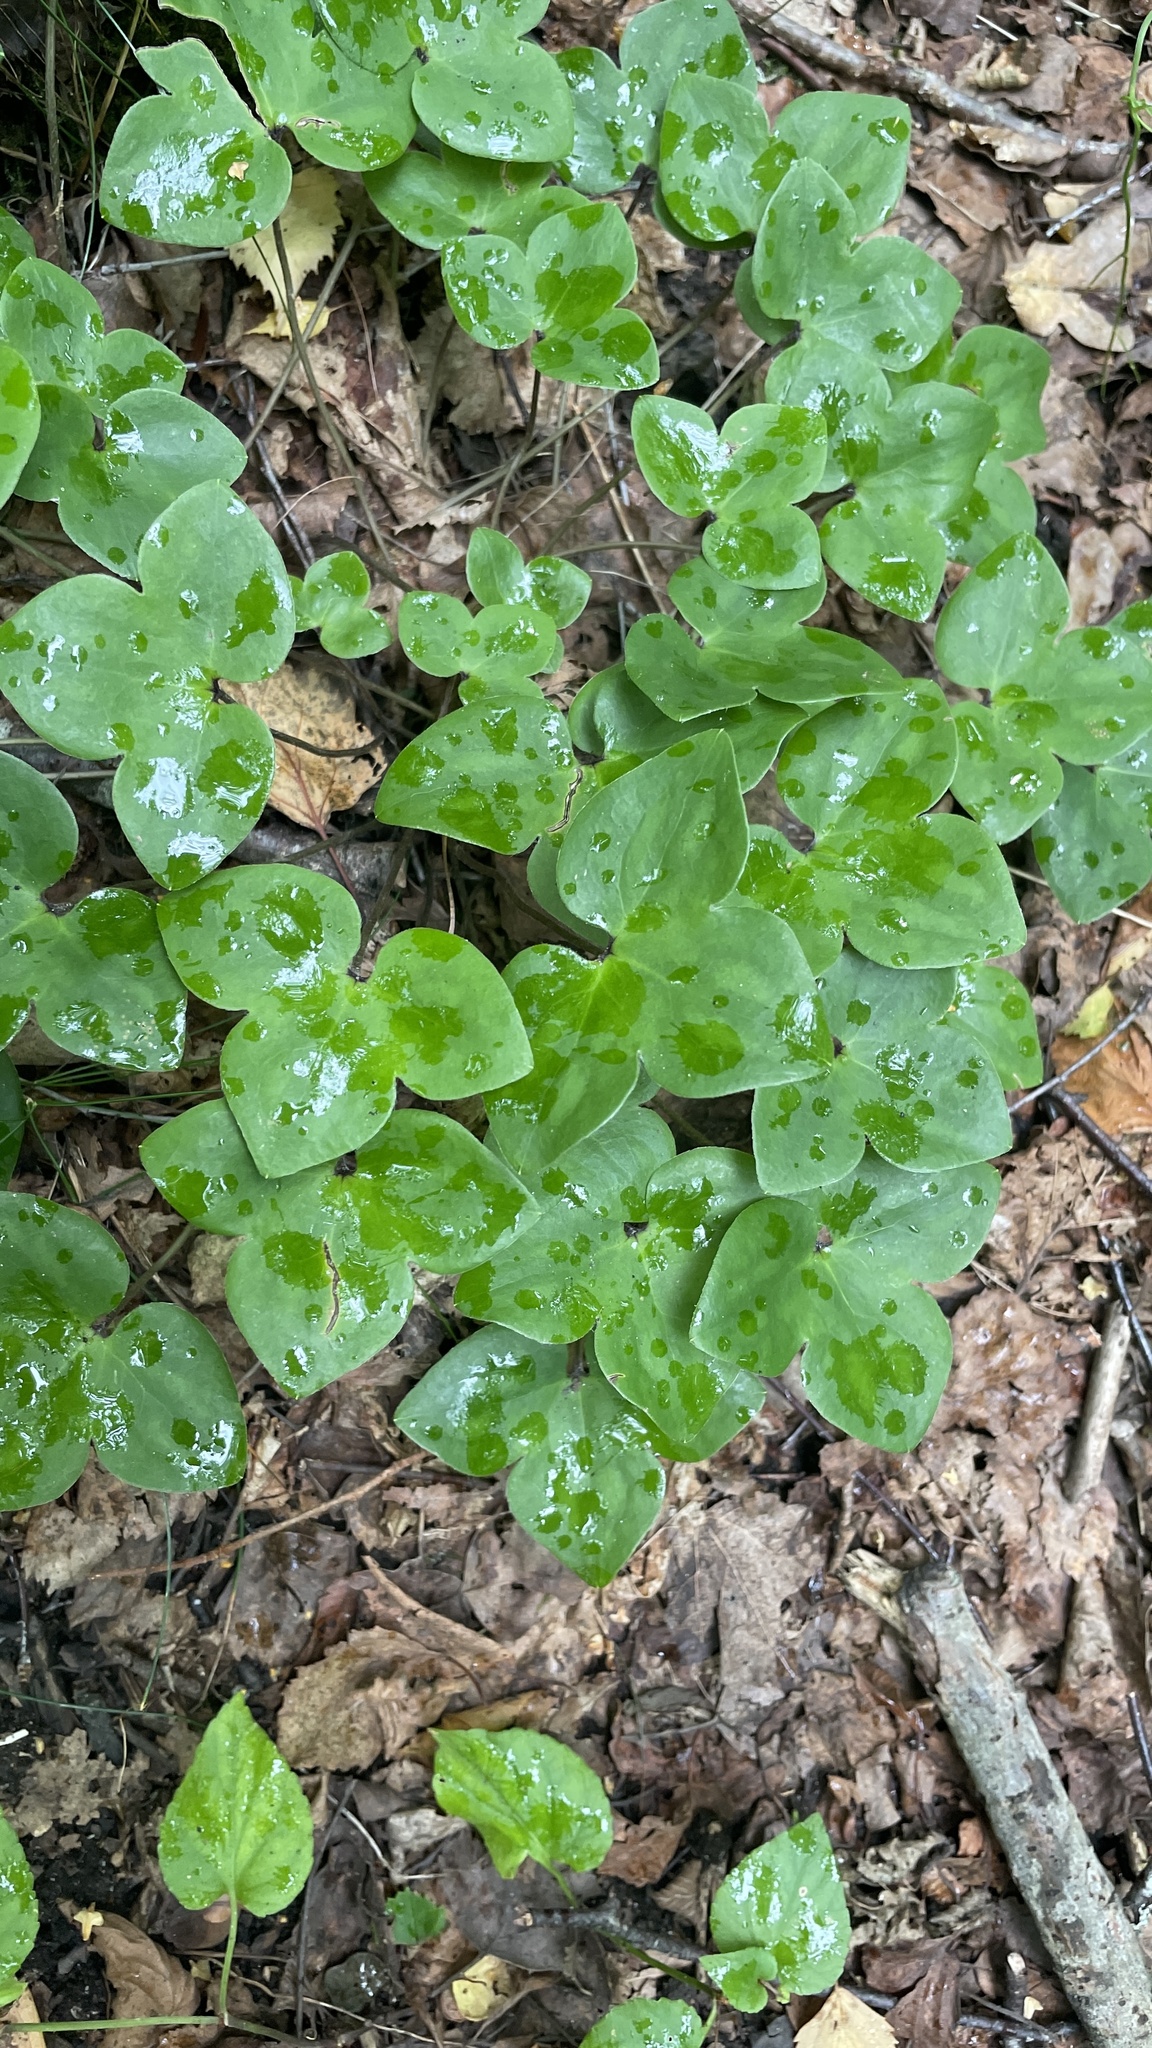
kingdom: Plantae
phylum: Tracheophyta
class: Magnoliopsida
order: Ranunculales
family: Ranunculaceae
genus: Hepatica
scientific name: Hepatica nobilis
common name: Liverleaf
